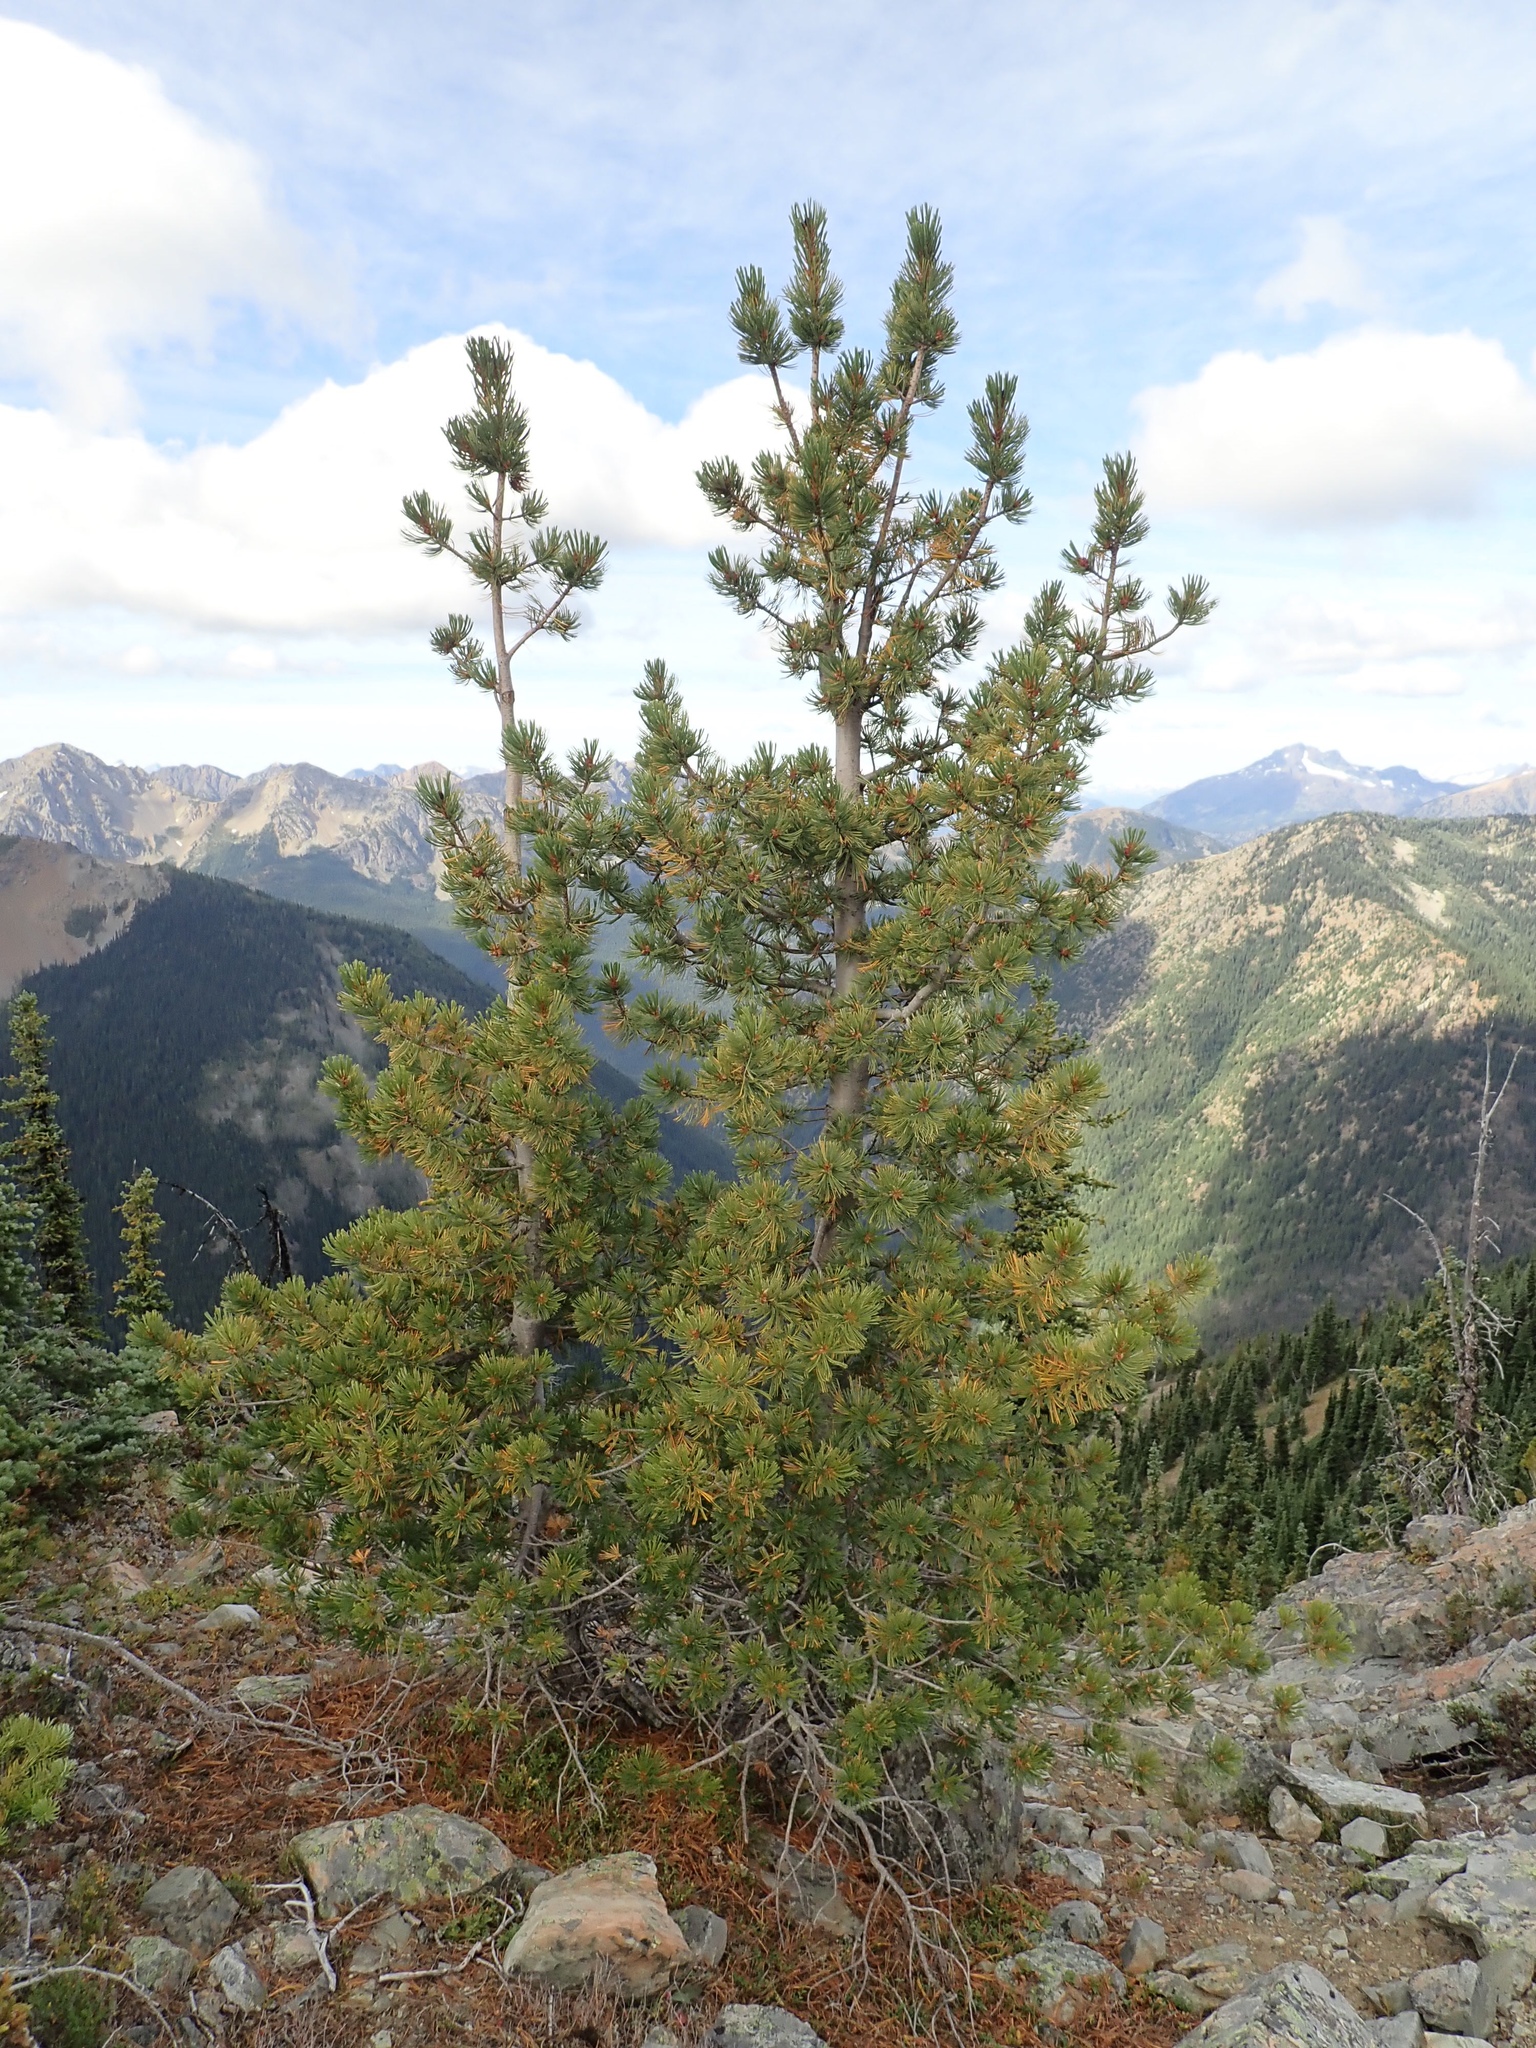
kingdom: Plantae
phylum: Tracheophyta
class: Pinopsida
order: Pinales
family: Pinaceae
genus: Pinus
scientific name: Pinus albicaulis
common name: Whitebark pine
